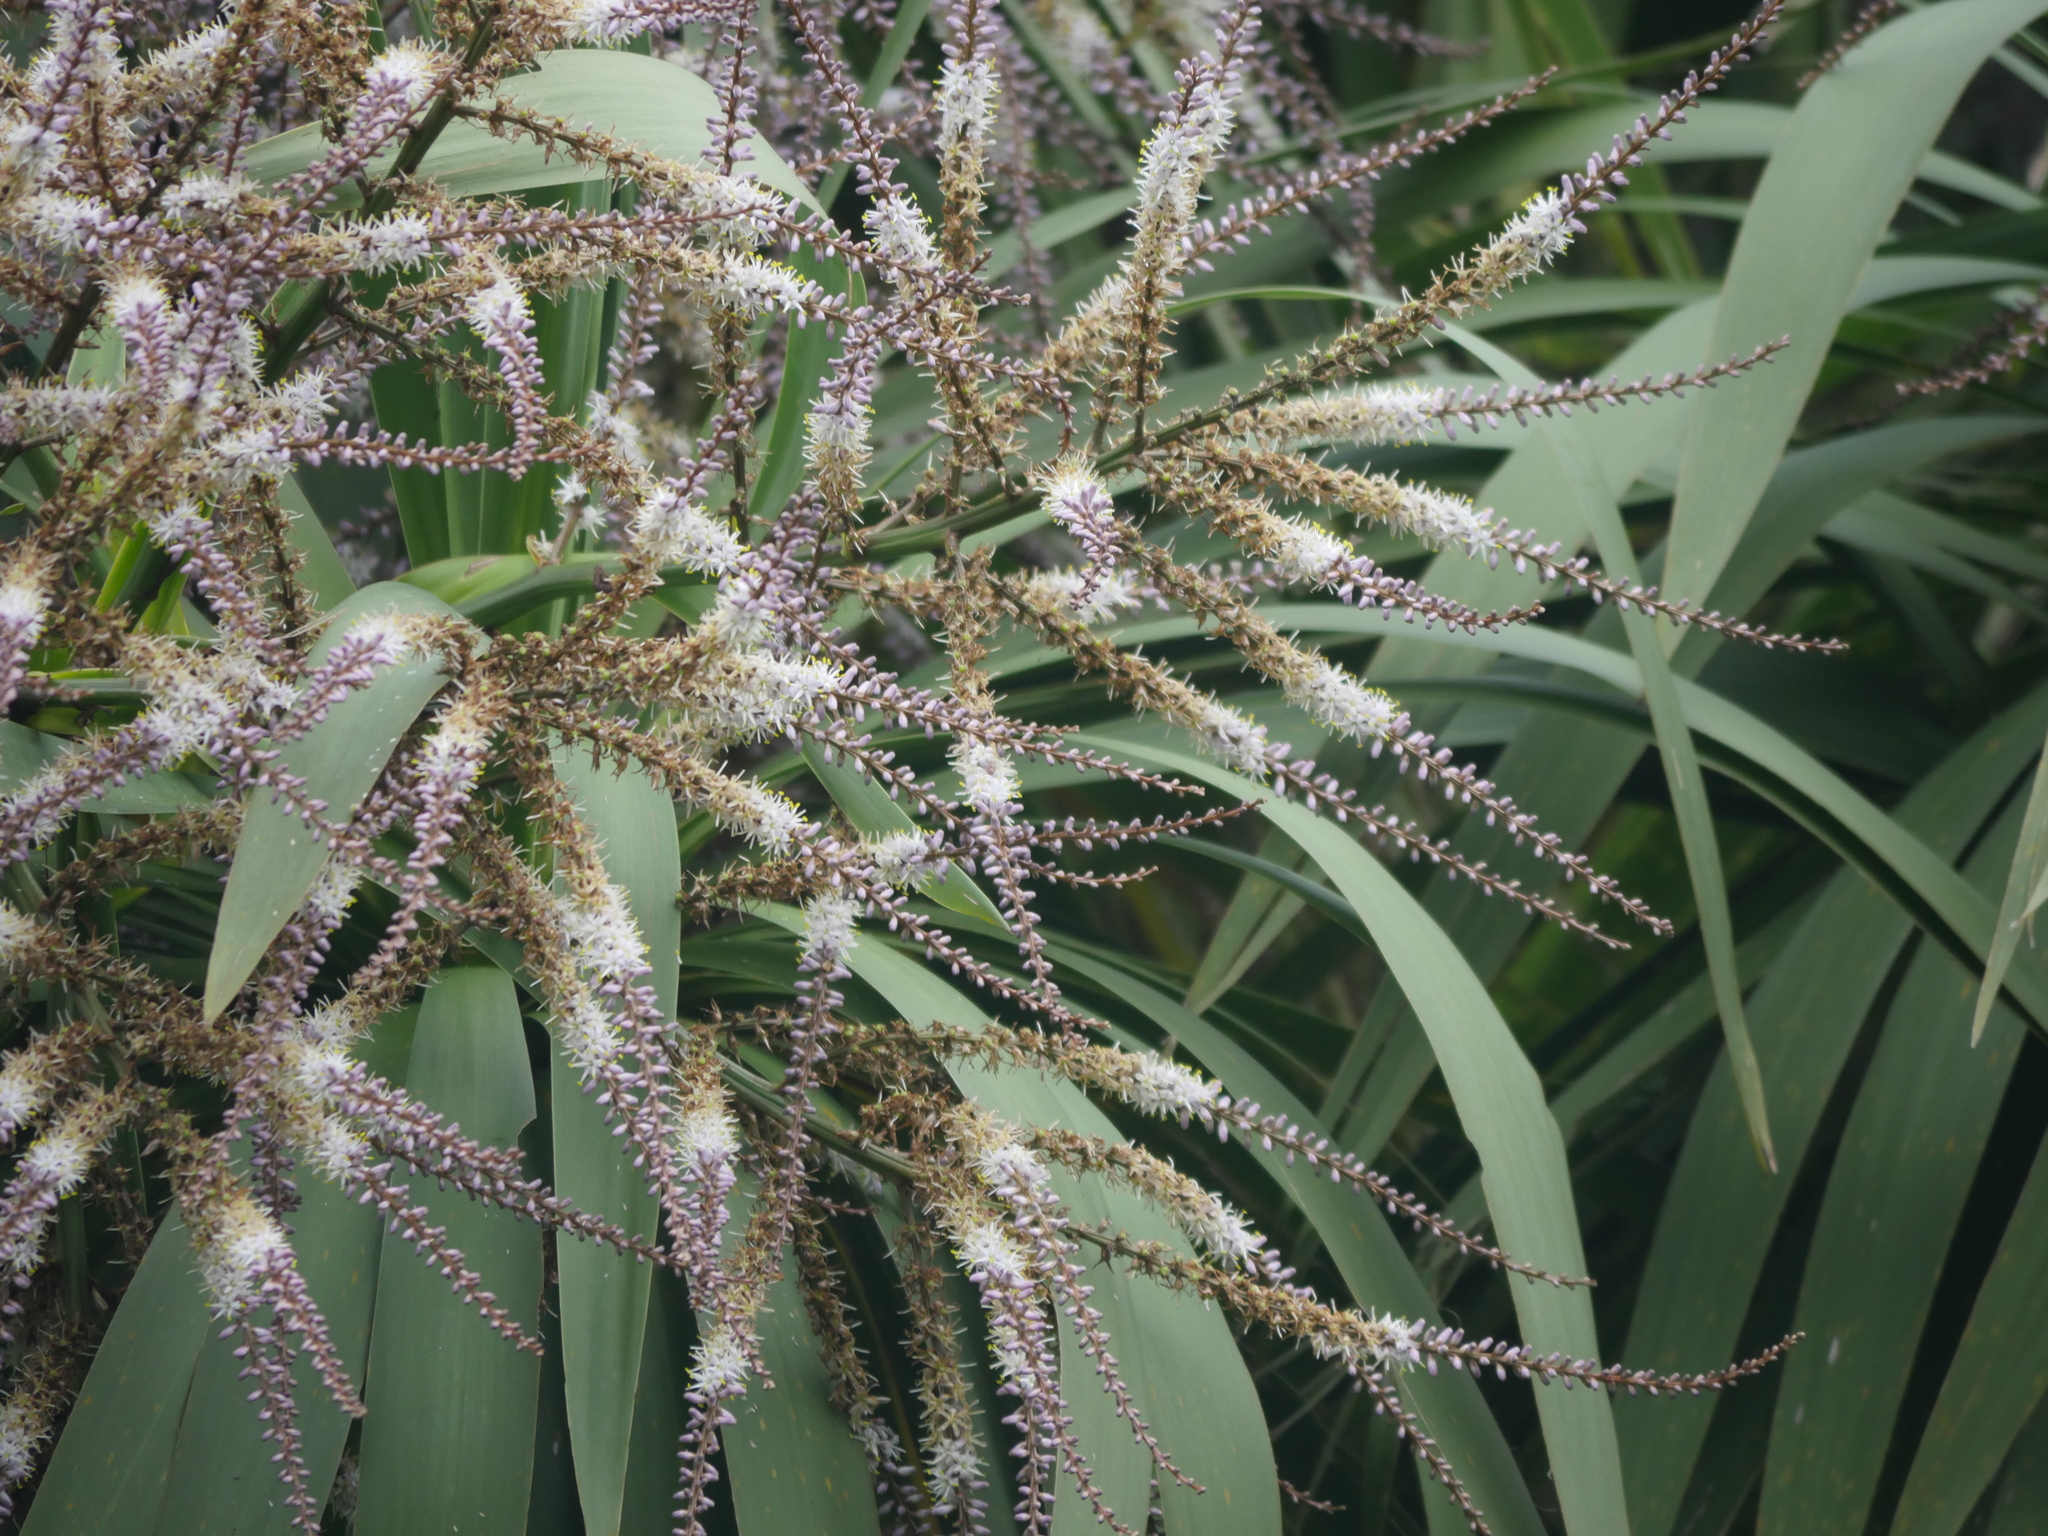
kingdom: Plantae
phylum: Tracheophyta
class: Liliopsida
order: Asparagales
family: Asparagaceae
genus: Cordyline
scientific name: Cordyline australis
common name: Cabbage-palm
